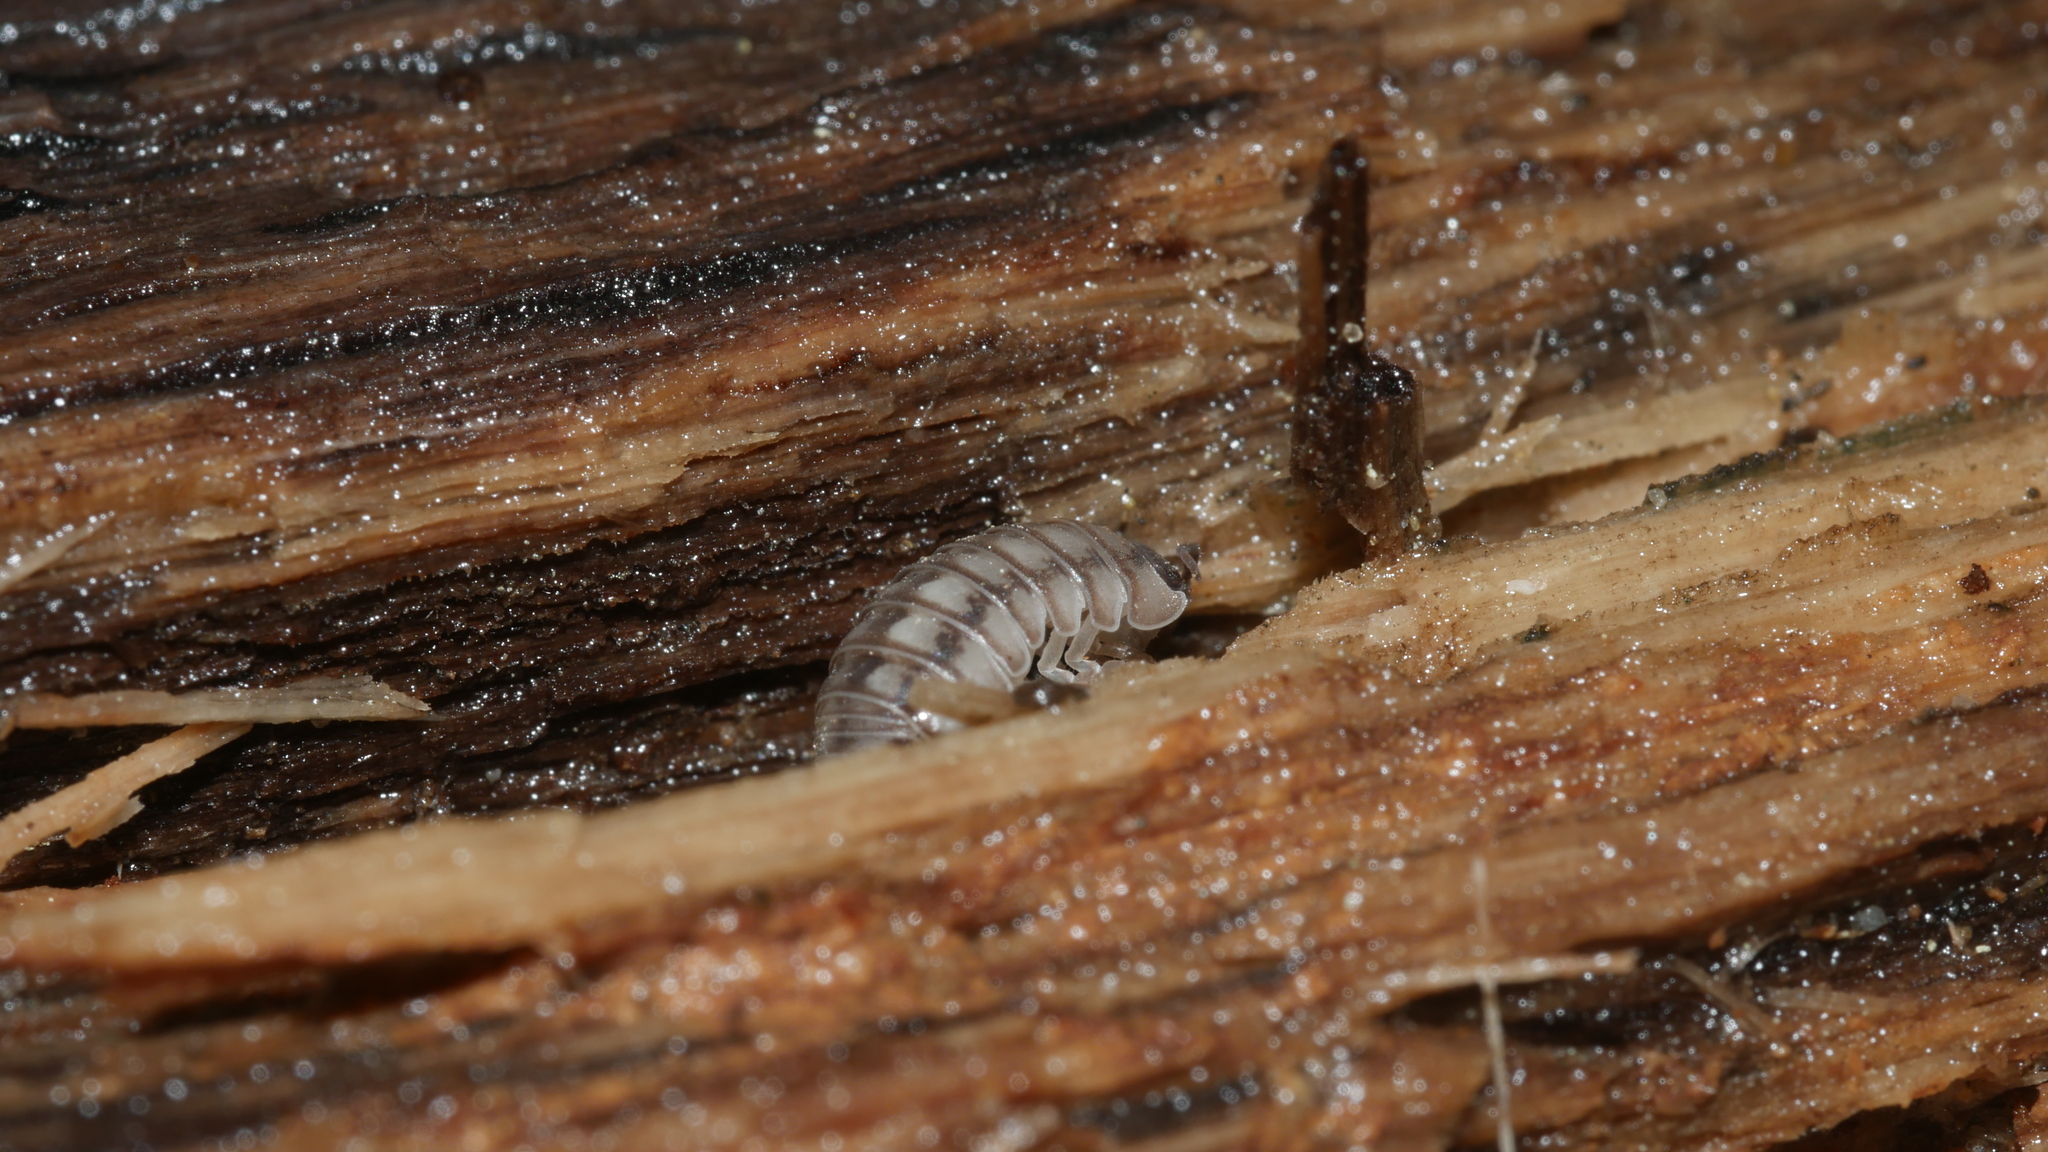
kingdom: Animalia
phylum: Arthropoda
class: Malacostraca
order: Isopoda
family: Armadillidiidae
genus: Armadillidium
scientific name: Armadillidium nasatum
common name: Isopod
